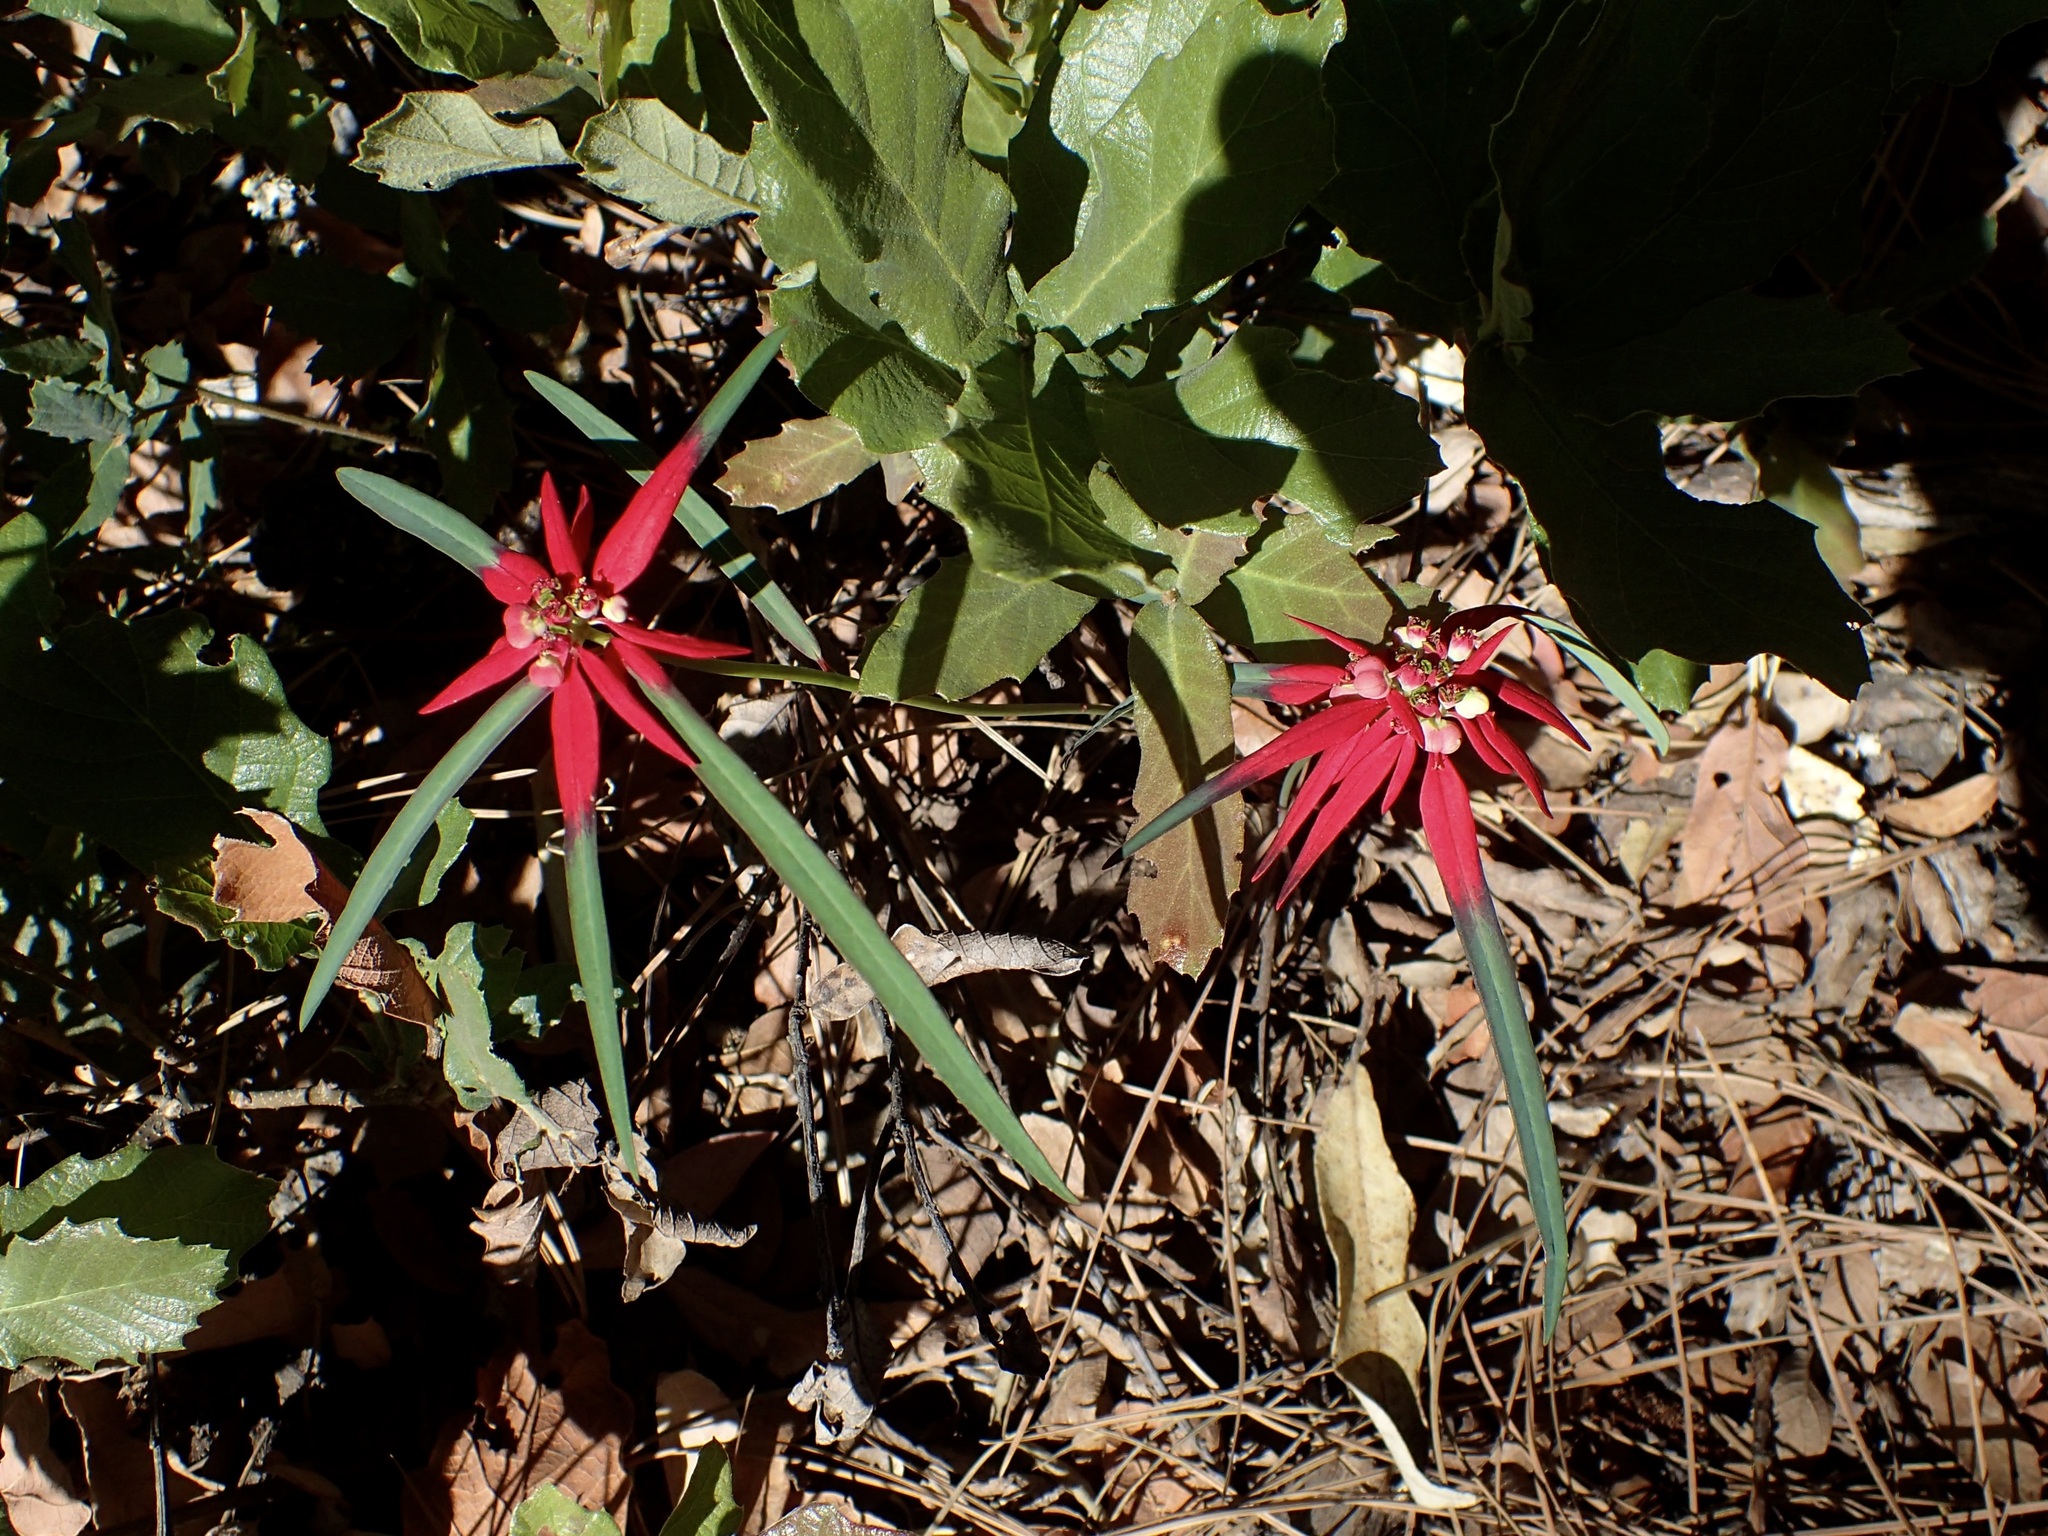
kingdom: Plantae
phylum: Tracheophyta
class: Magnoliopsida
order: Malpighiales
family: Euphorbiaceae
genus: Euphorbia
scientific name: Euphorbia colorata
